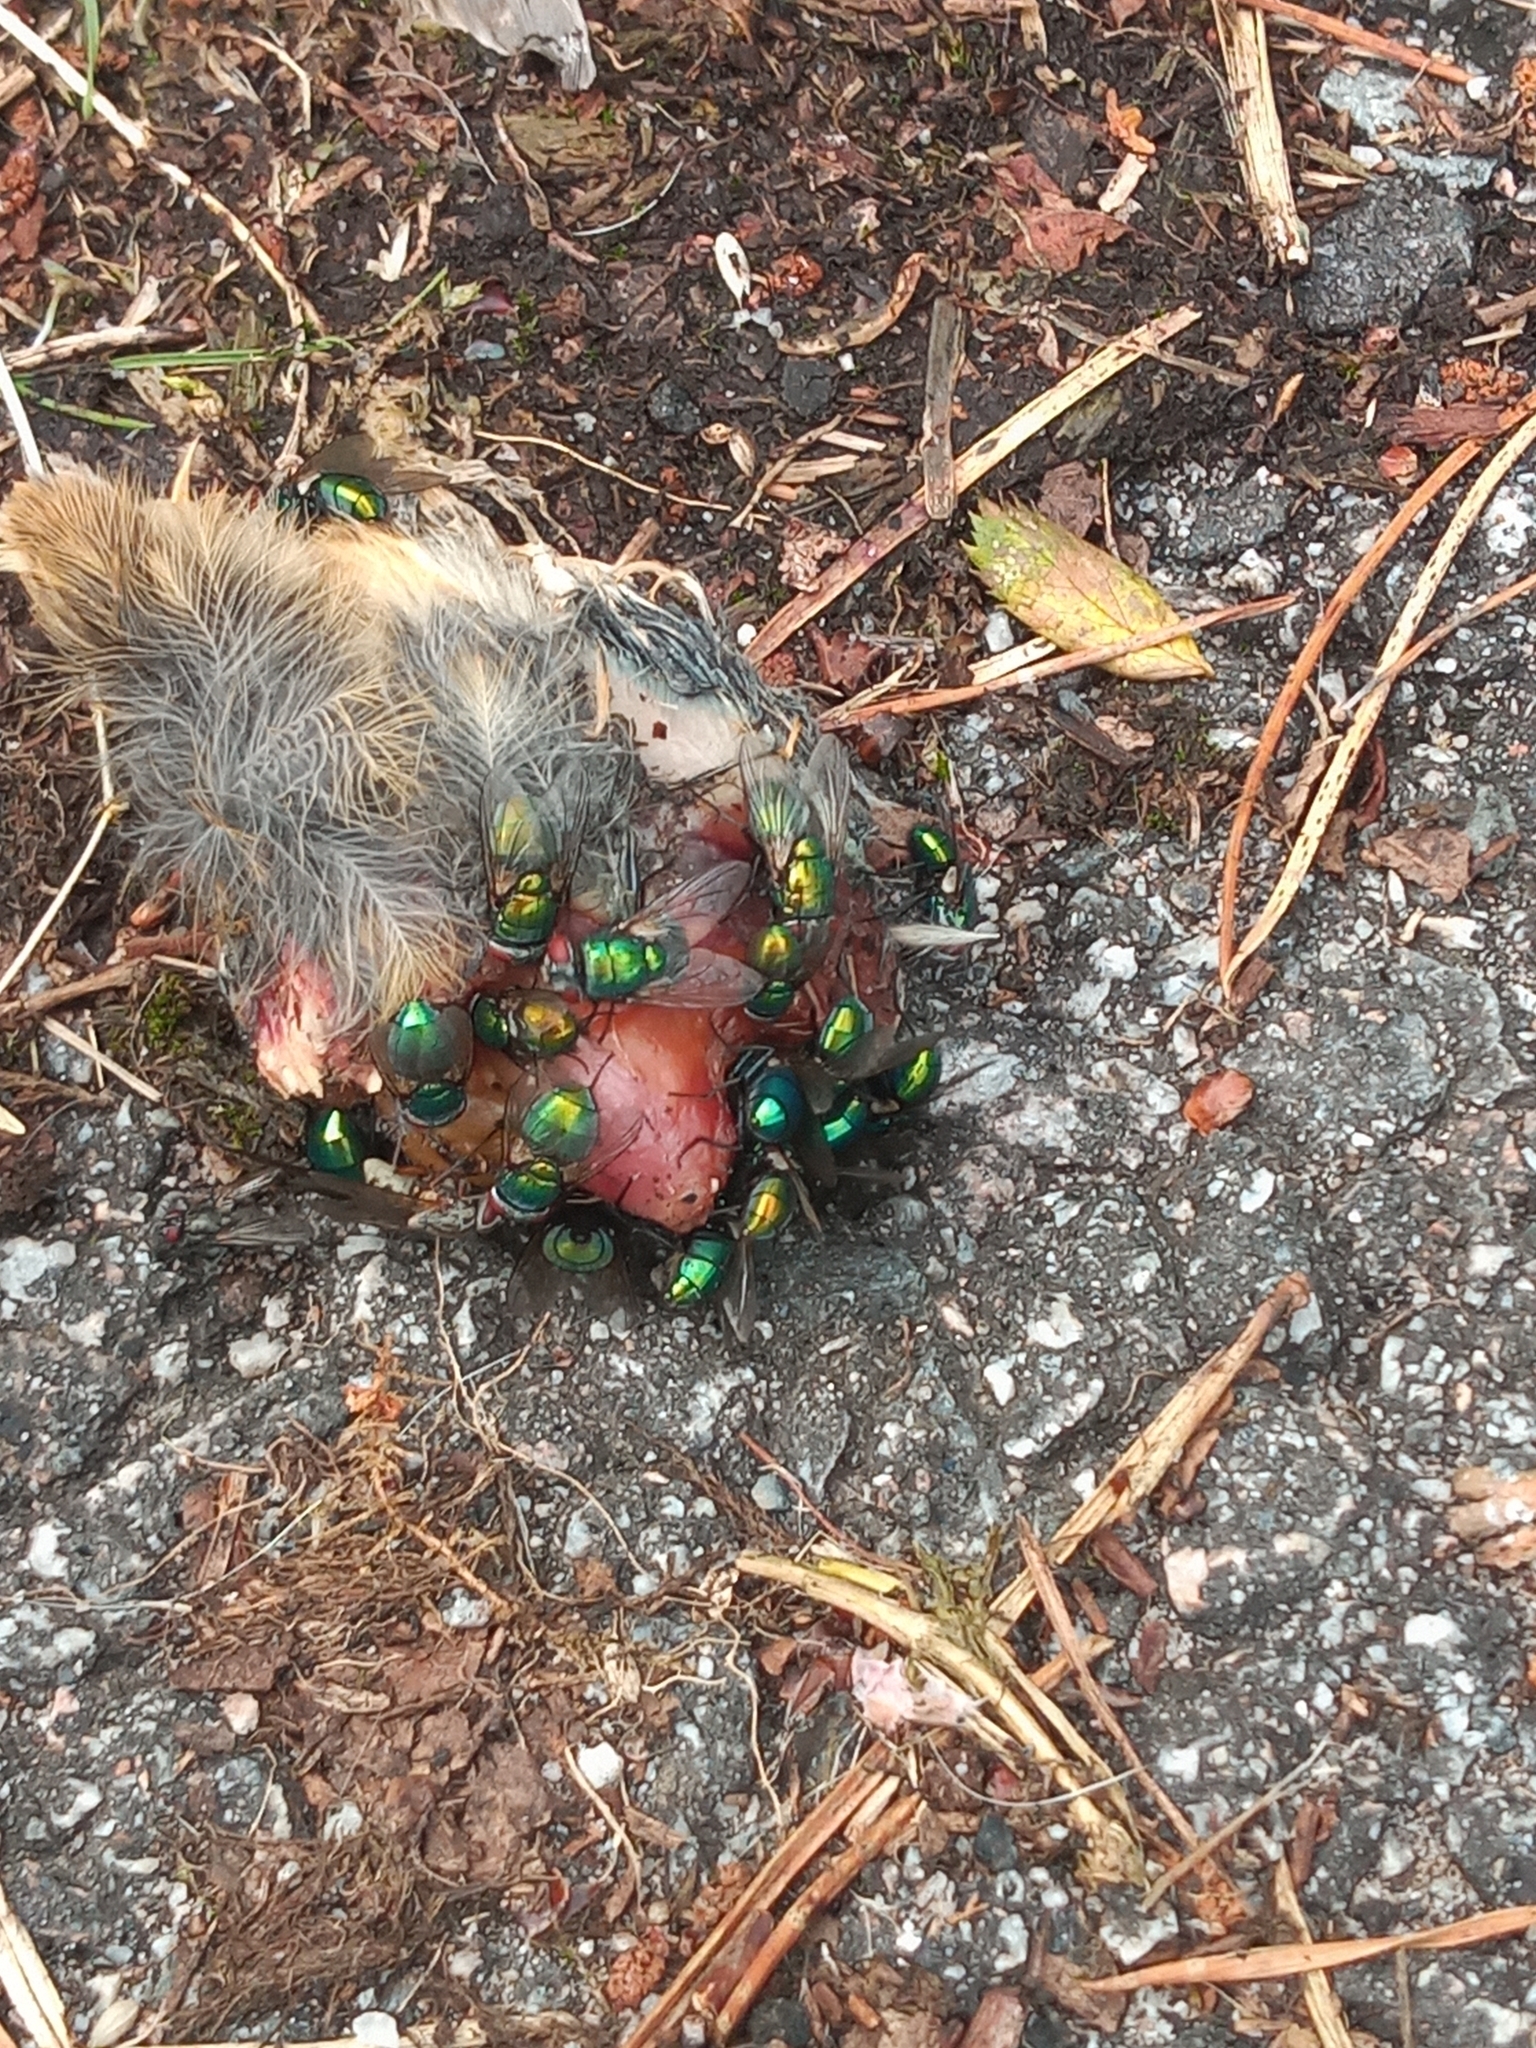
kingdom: Animalia
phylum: Arthropoda
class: Insecta
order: Diptera
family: Calliphoridae
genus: Lucilia
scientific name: Lucilia
